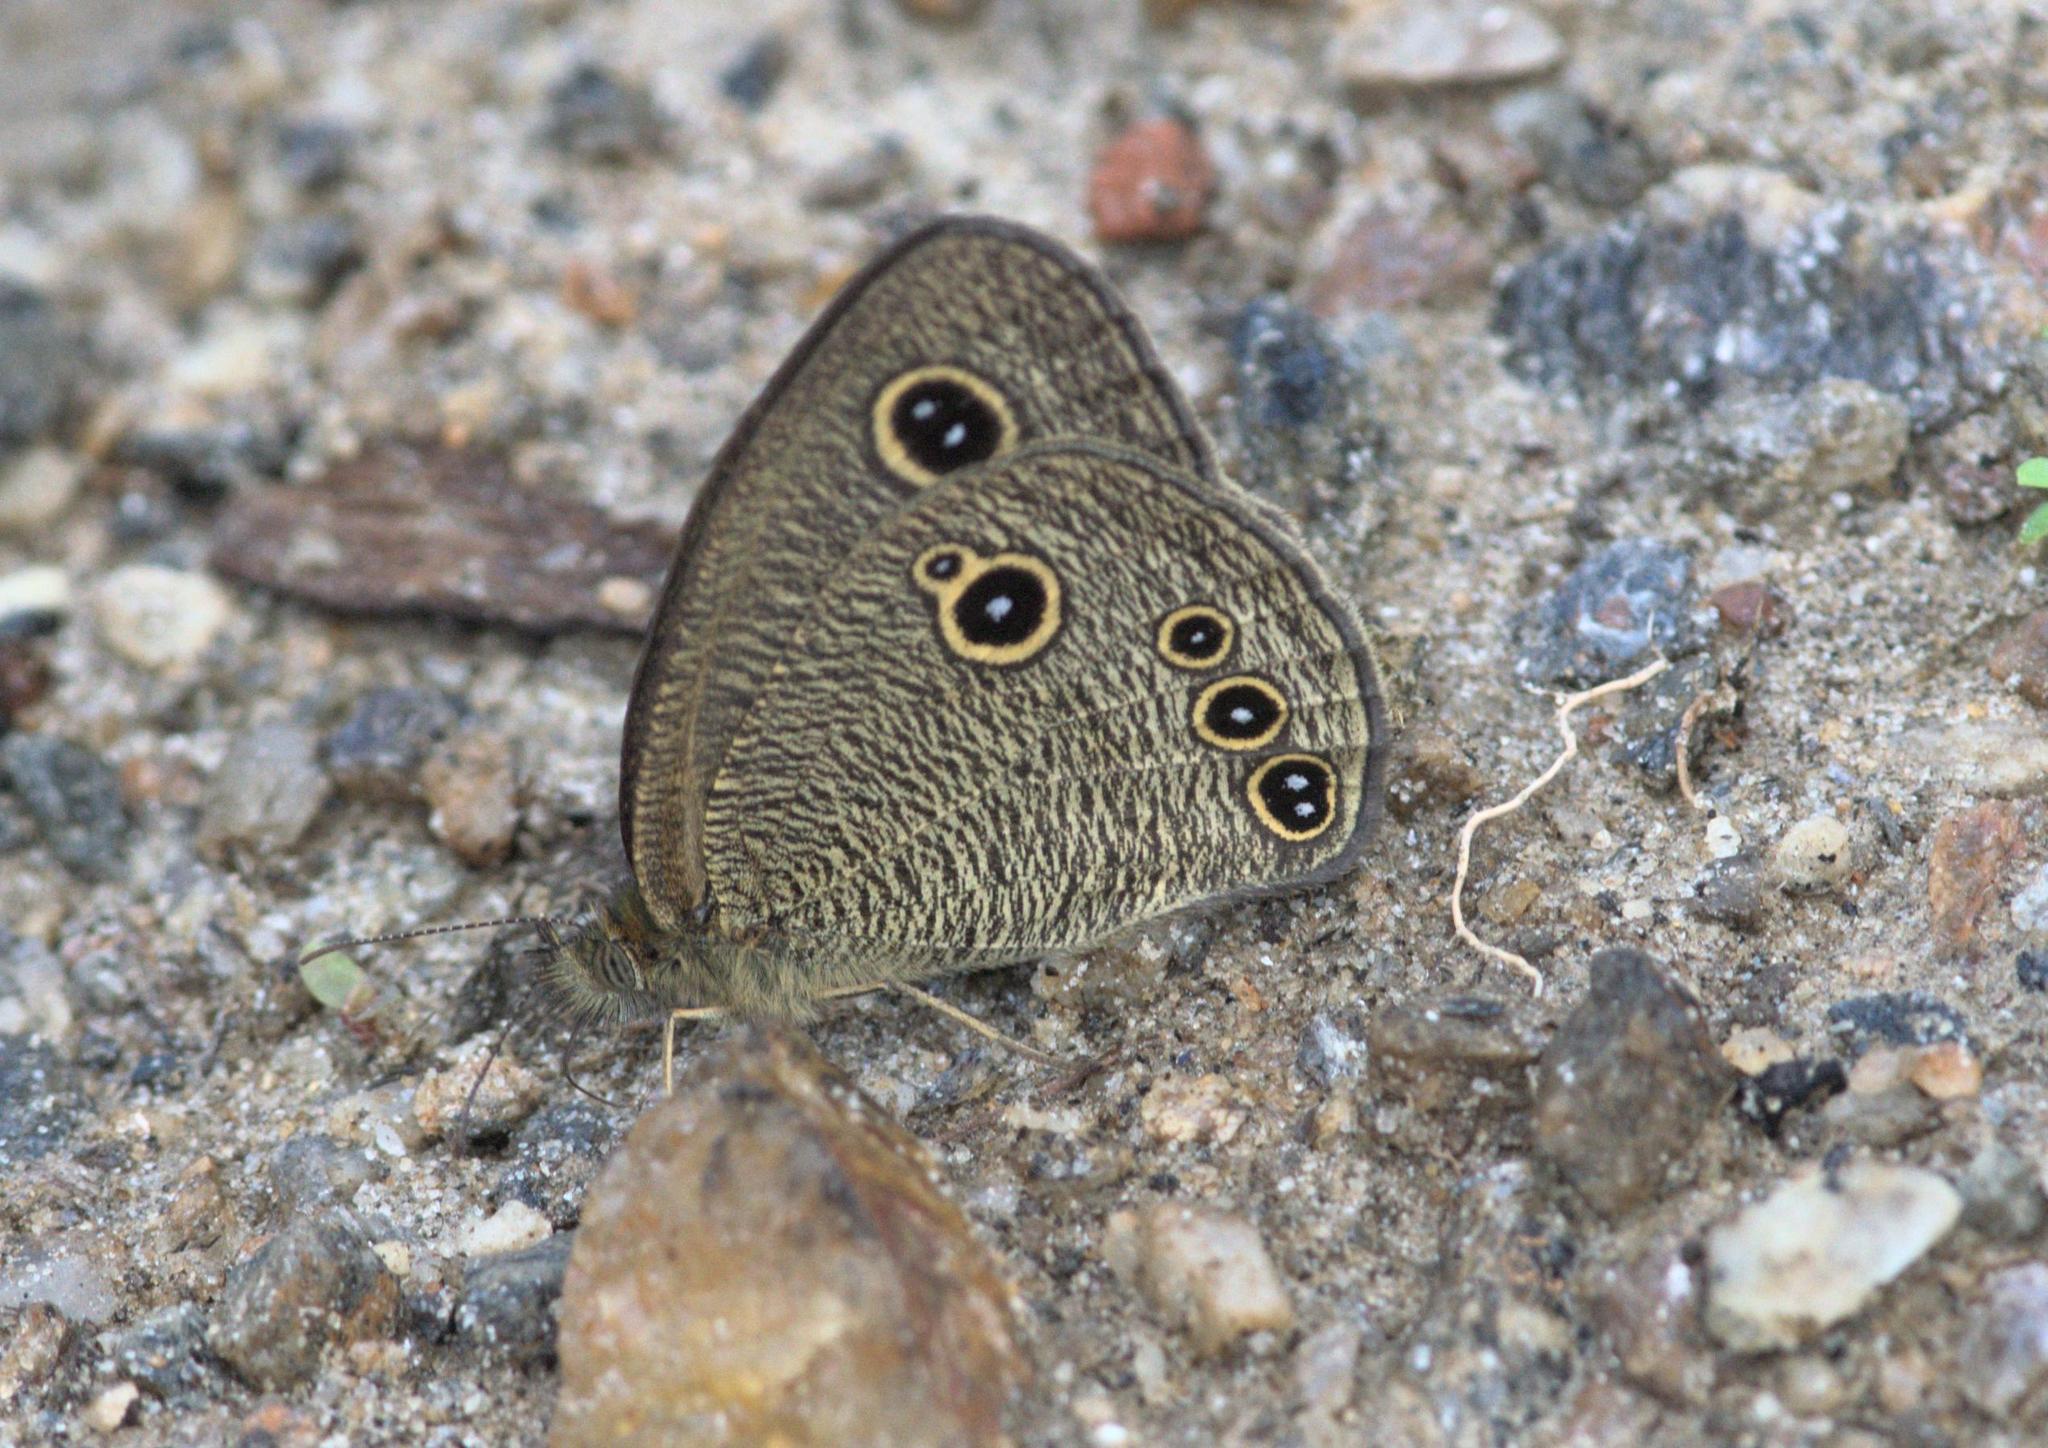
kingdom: Animalia
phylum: Arthropoda
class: Insecta
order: Lepidoptera
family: Nymphalidae
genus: Ypthima
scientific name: Ypthima nikaea
